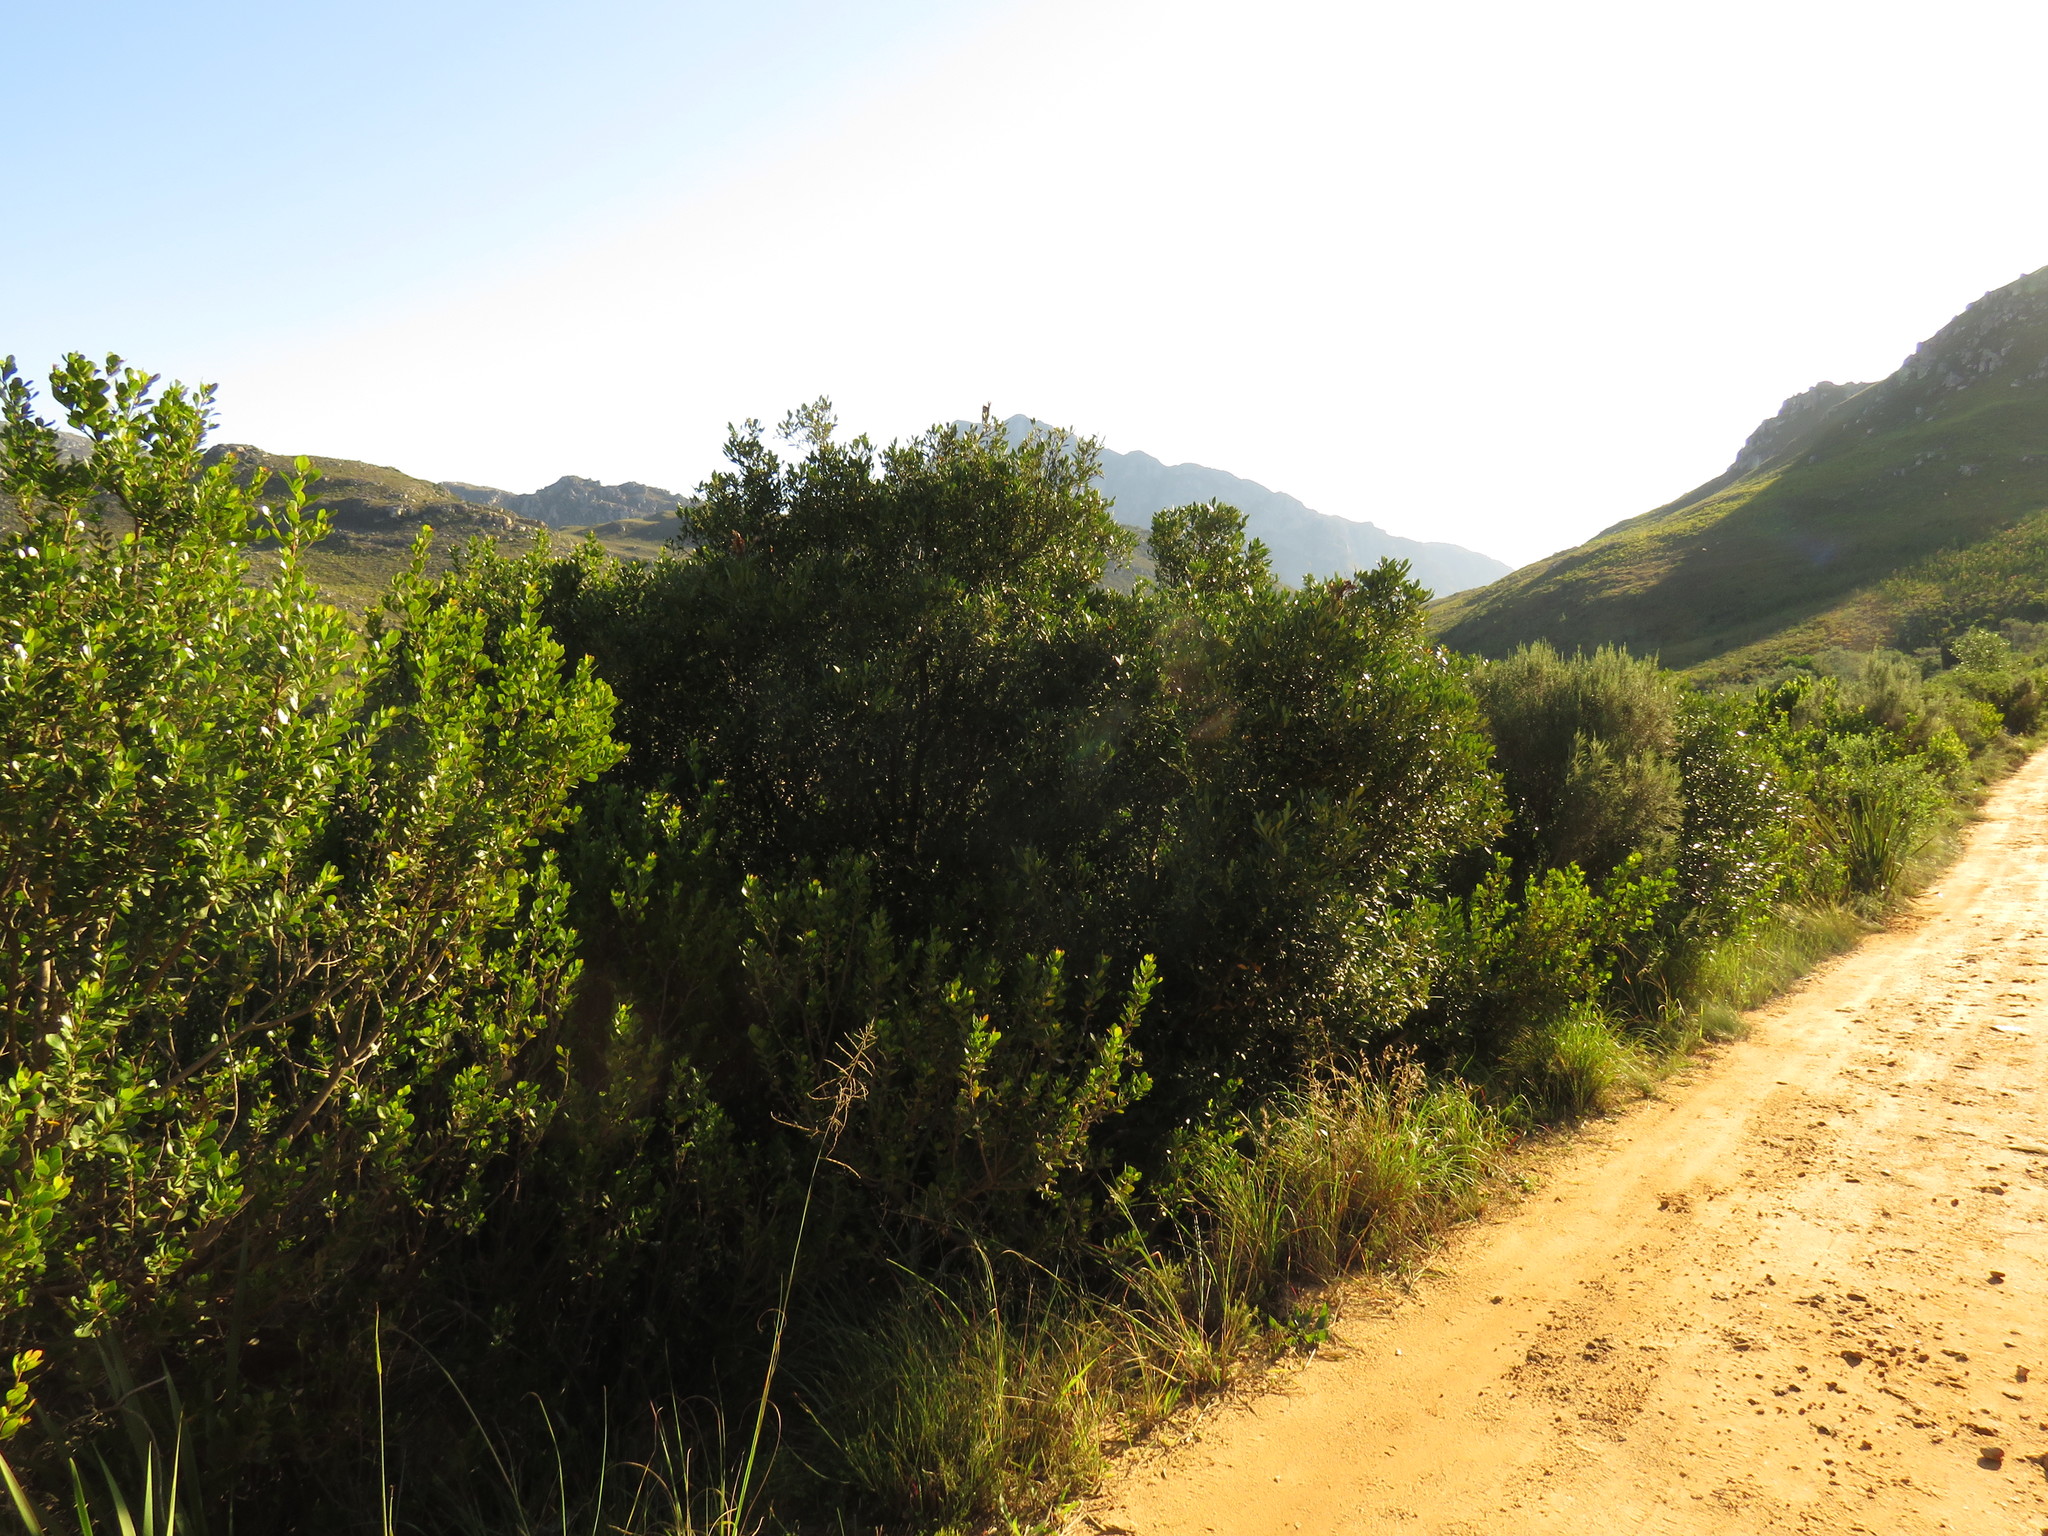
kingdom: Plantae
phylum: Tracheophyta
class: Magnoliopsida
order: Celastrales
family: Celastraceae
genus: Elaeodendron
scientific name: Elaeodendron schinoides
